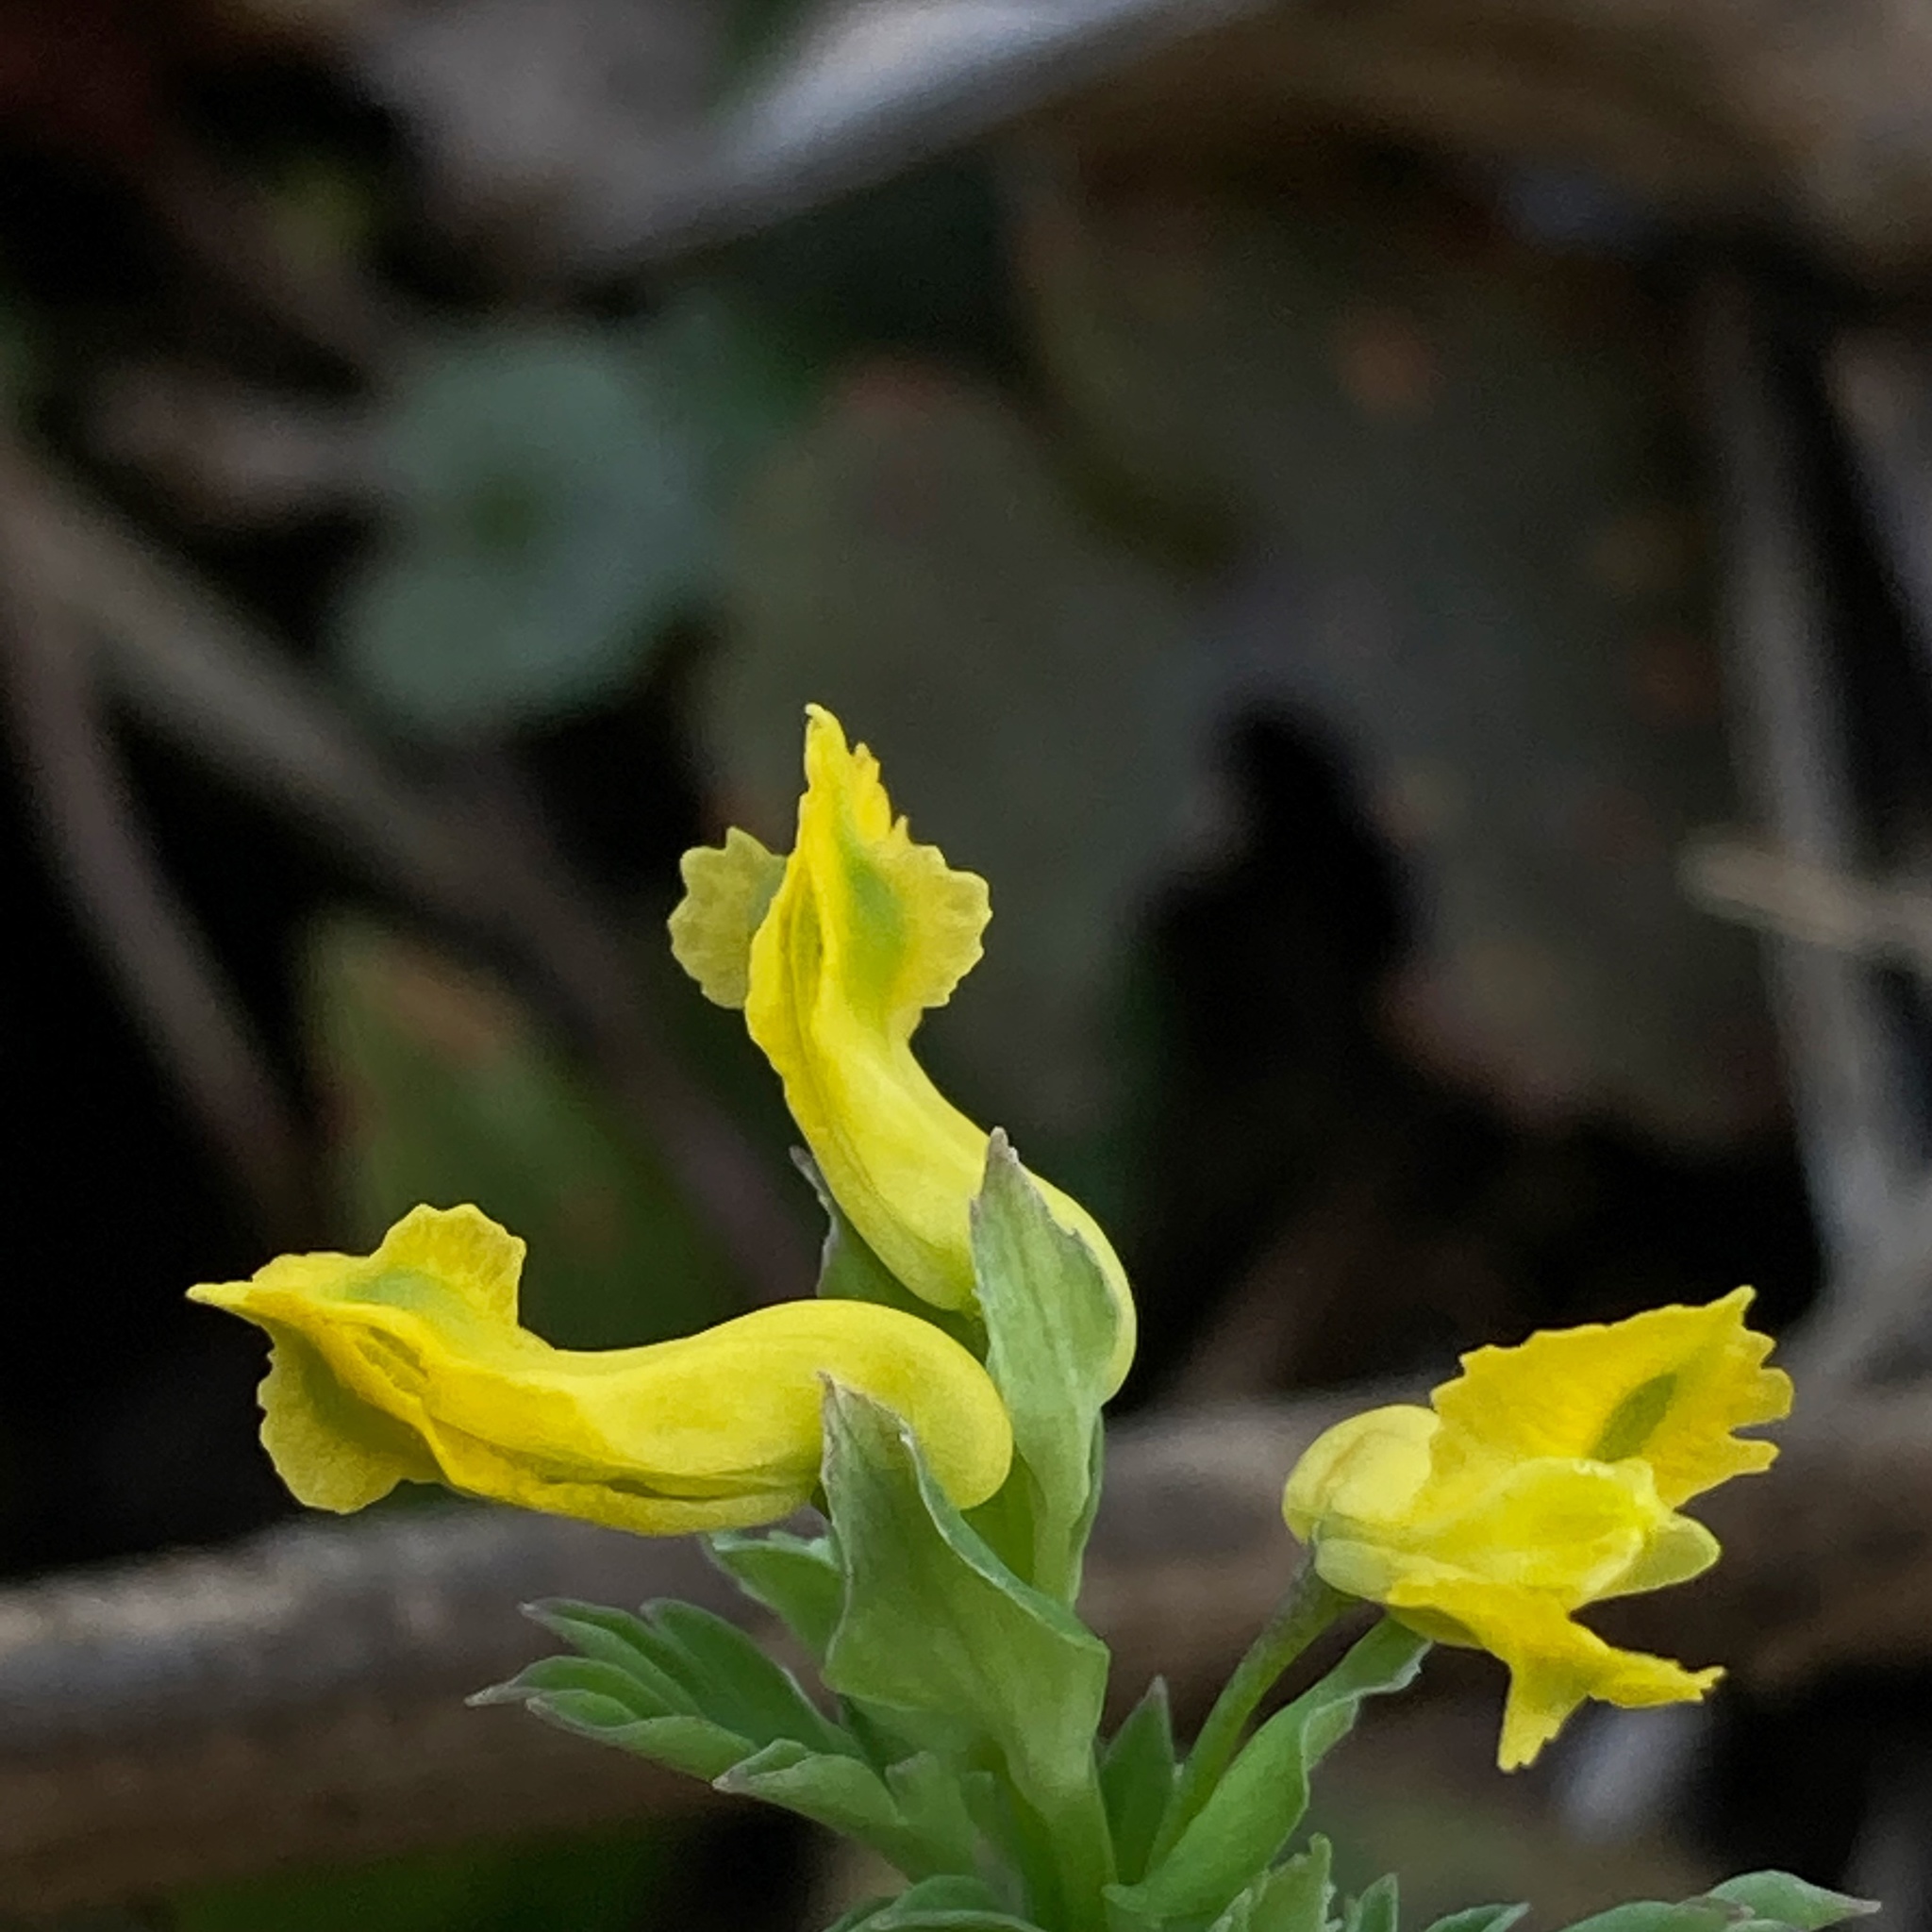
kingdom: Plantae
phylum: Tracheophyta
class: Magnoliopsida
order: Ranunculales
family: Papaveraceae
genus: Corydalis
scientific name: Corydalis flavula
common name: Yellow corydalis
